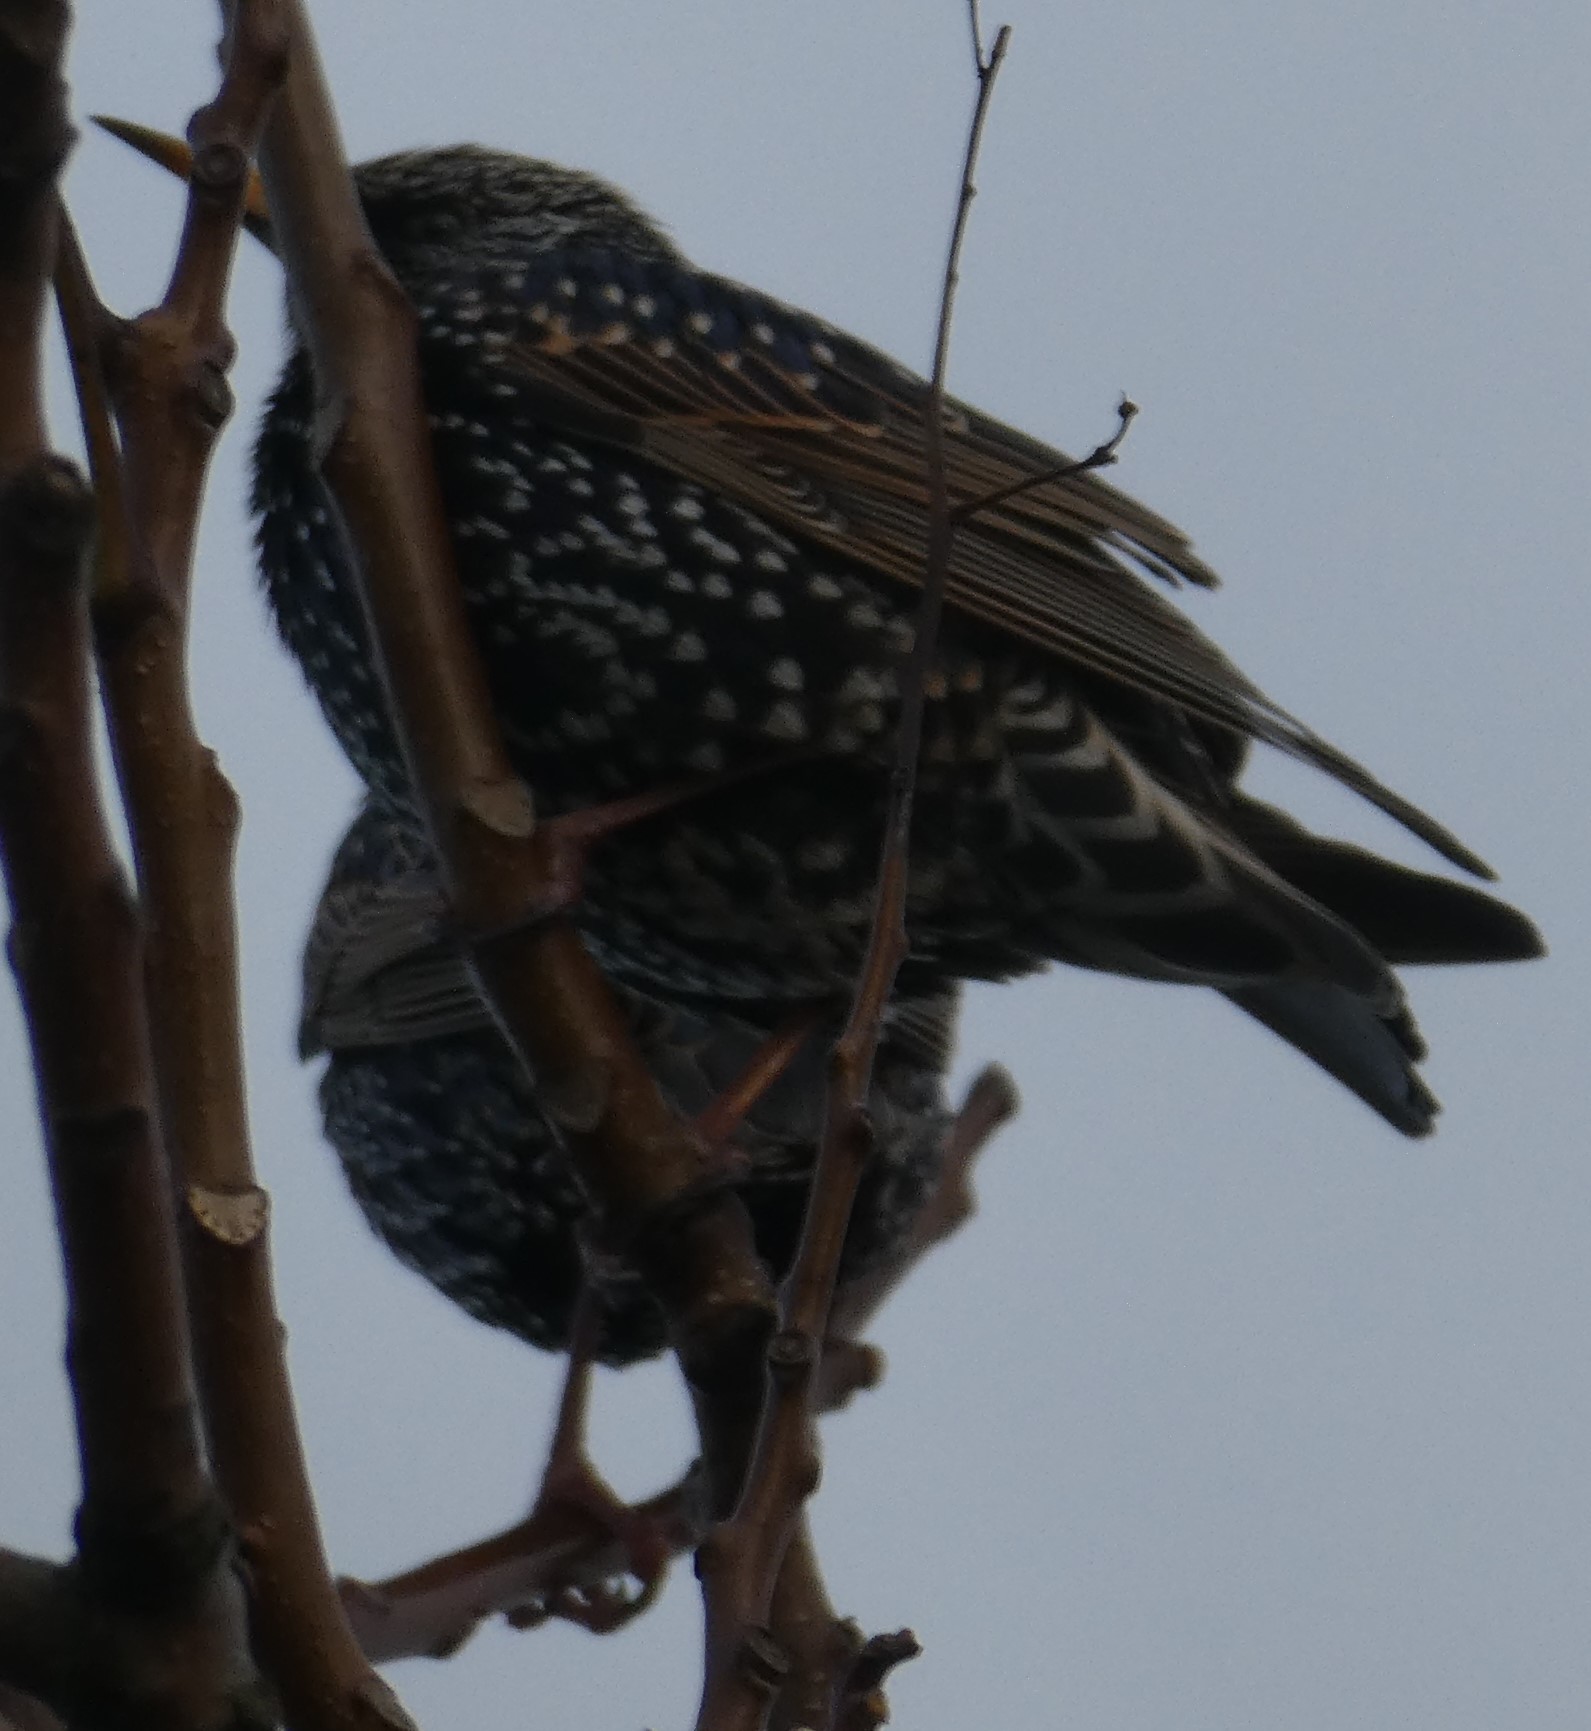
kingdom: Animalia
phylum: Chordata
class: Aves
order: Passeriformes
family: Sturnidae
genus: Sturnus
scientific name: Sturnus vulgaris
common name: Common starling
